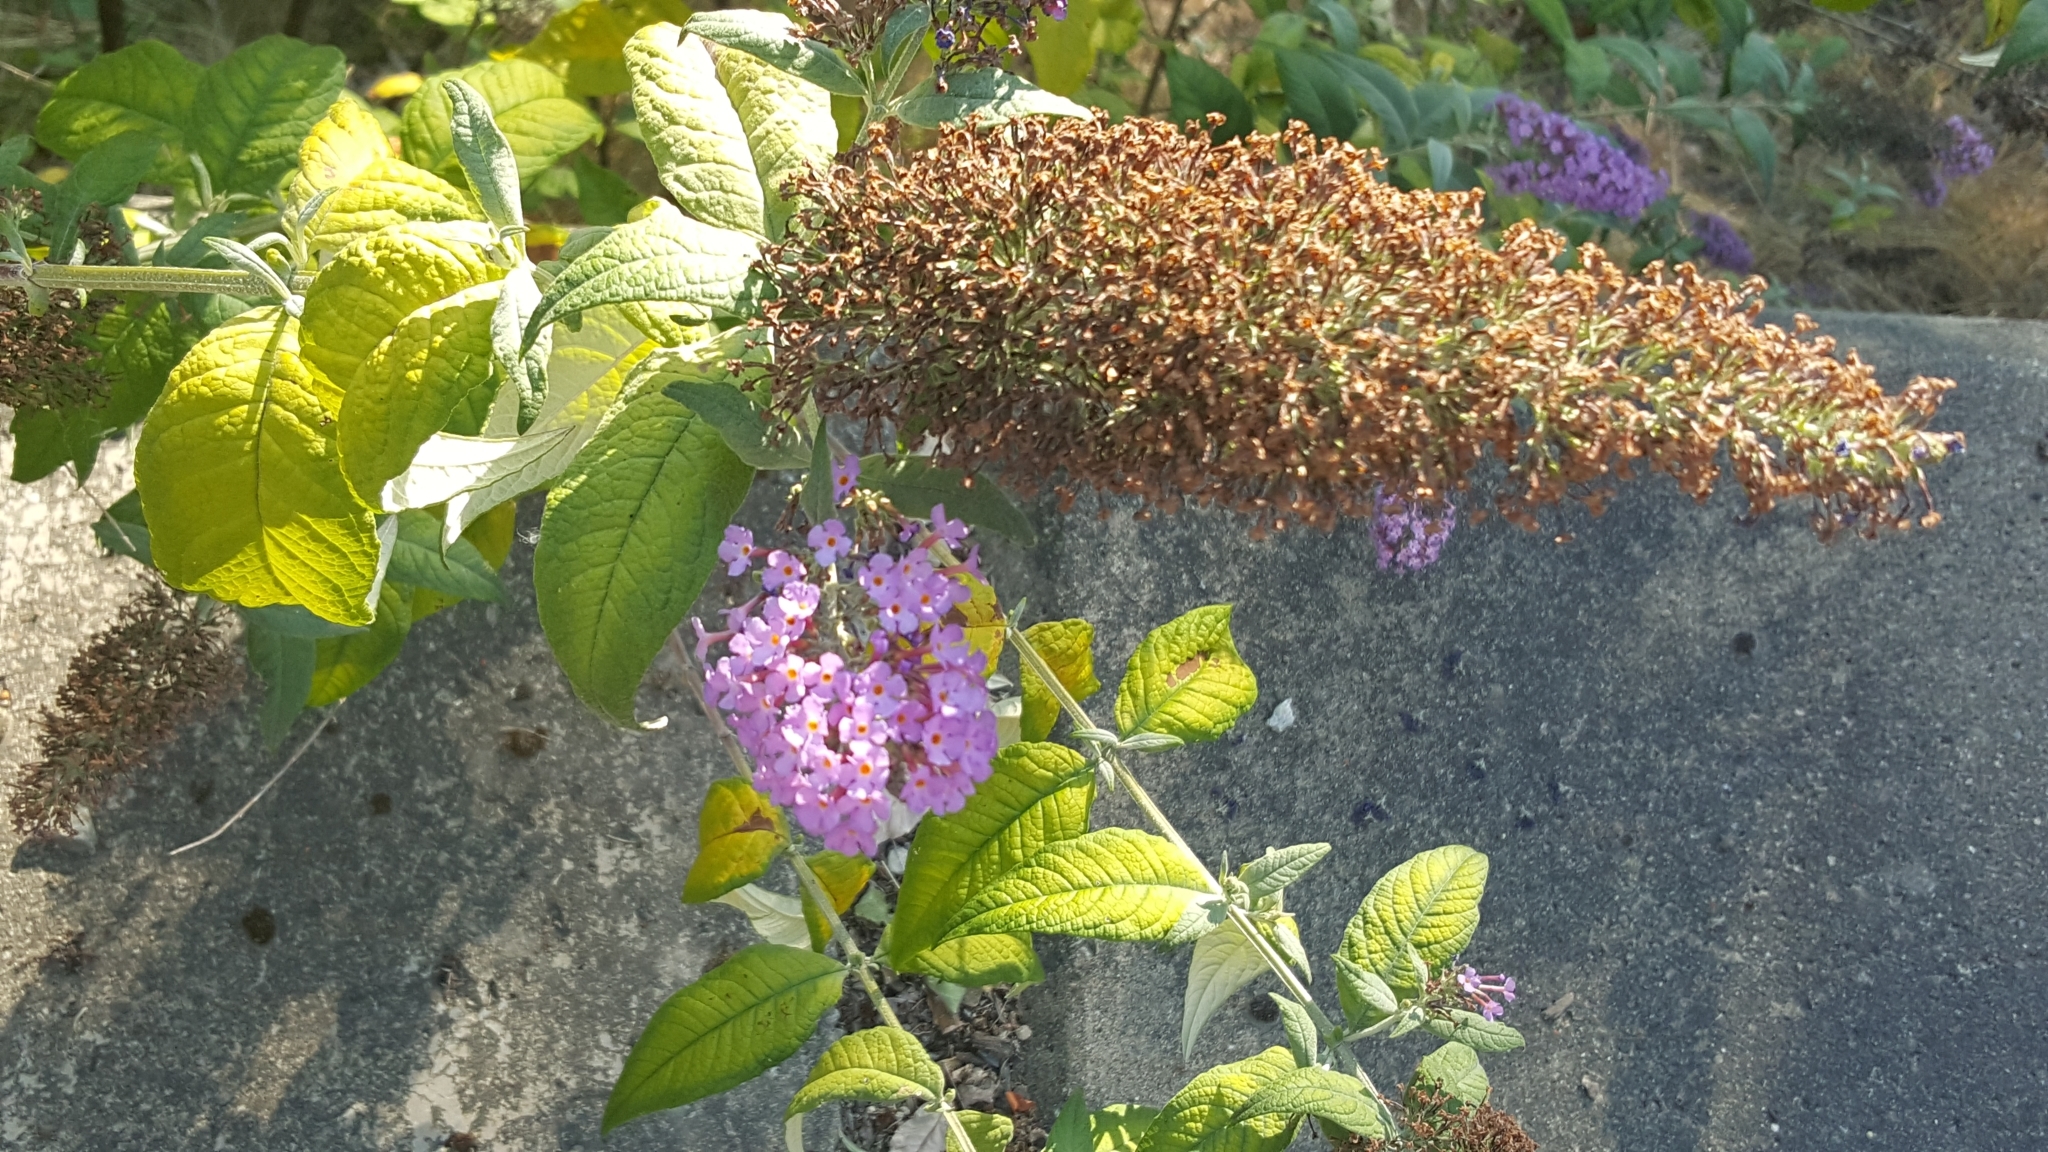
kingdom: Plantae
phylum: Tracheophyta
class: Magnoliopsida
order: Lamiales
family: Scrophulariaceae
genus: Buddleja
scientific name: Buddleja davidii
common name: Butterfly-bush
